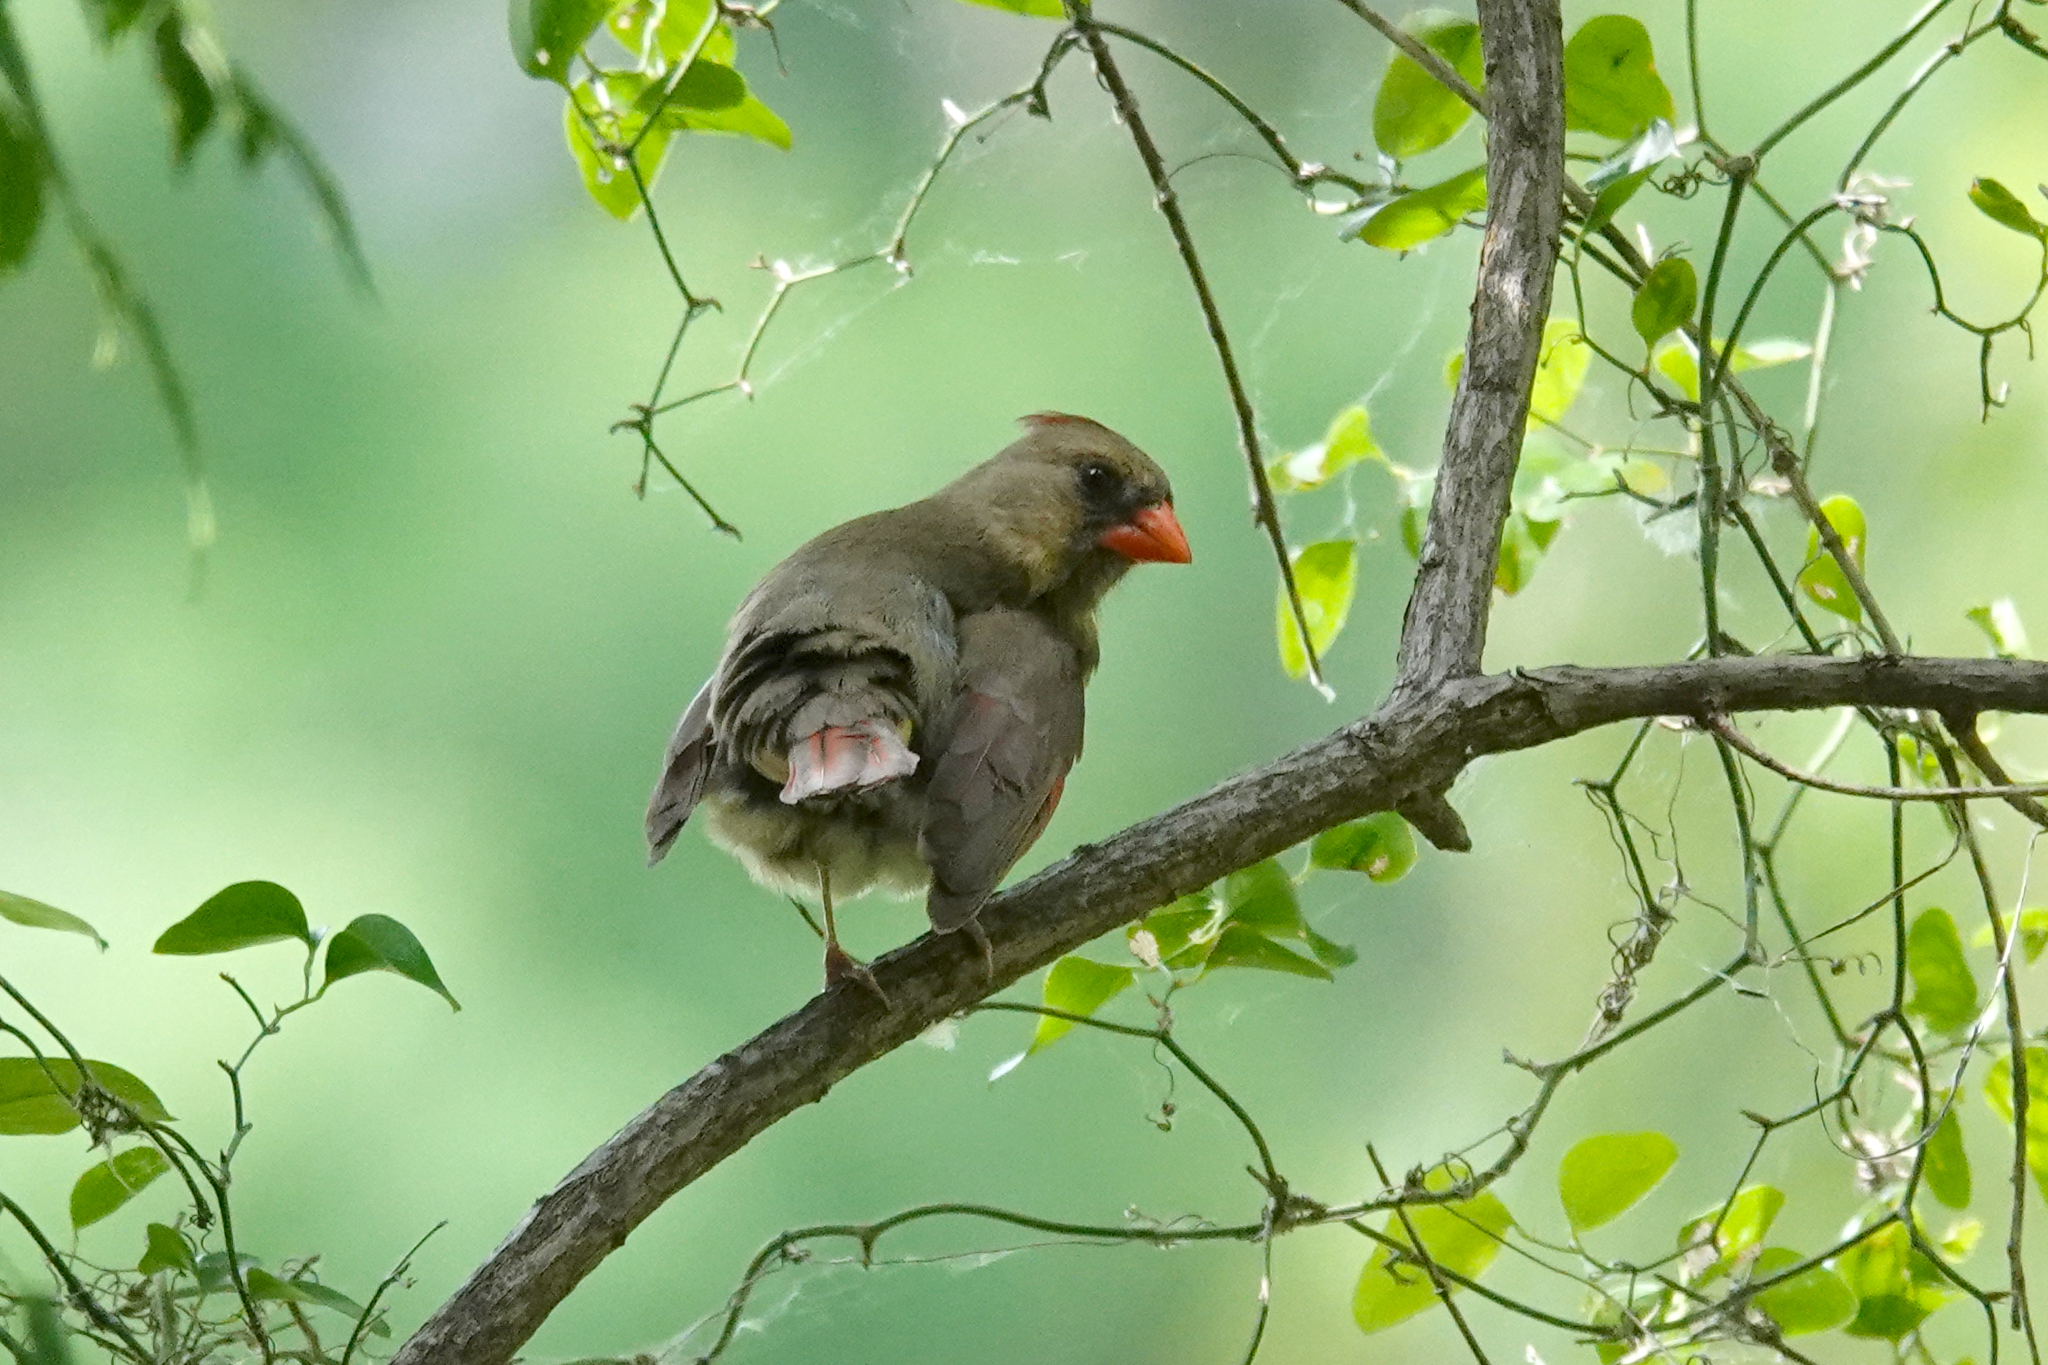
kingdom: Animalia
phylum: Chordata
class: Aves
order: Passeriformes
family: Cardinalidae
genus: Cardinalis
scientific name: Cardinalis cardinalis
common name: Northern cardinal
